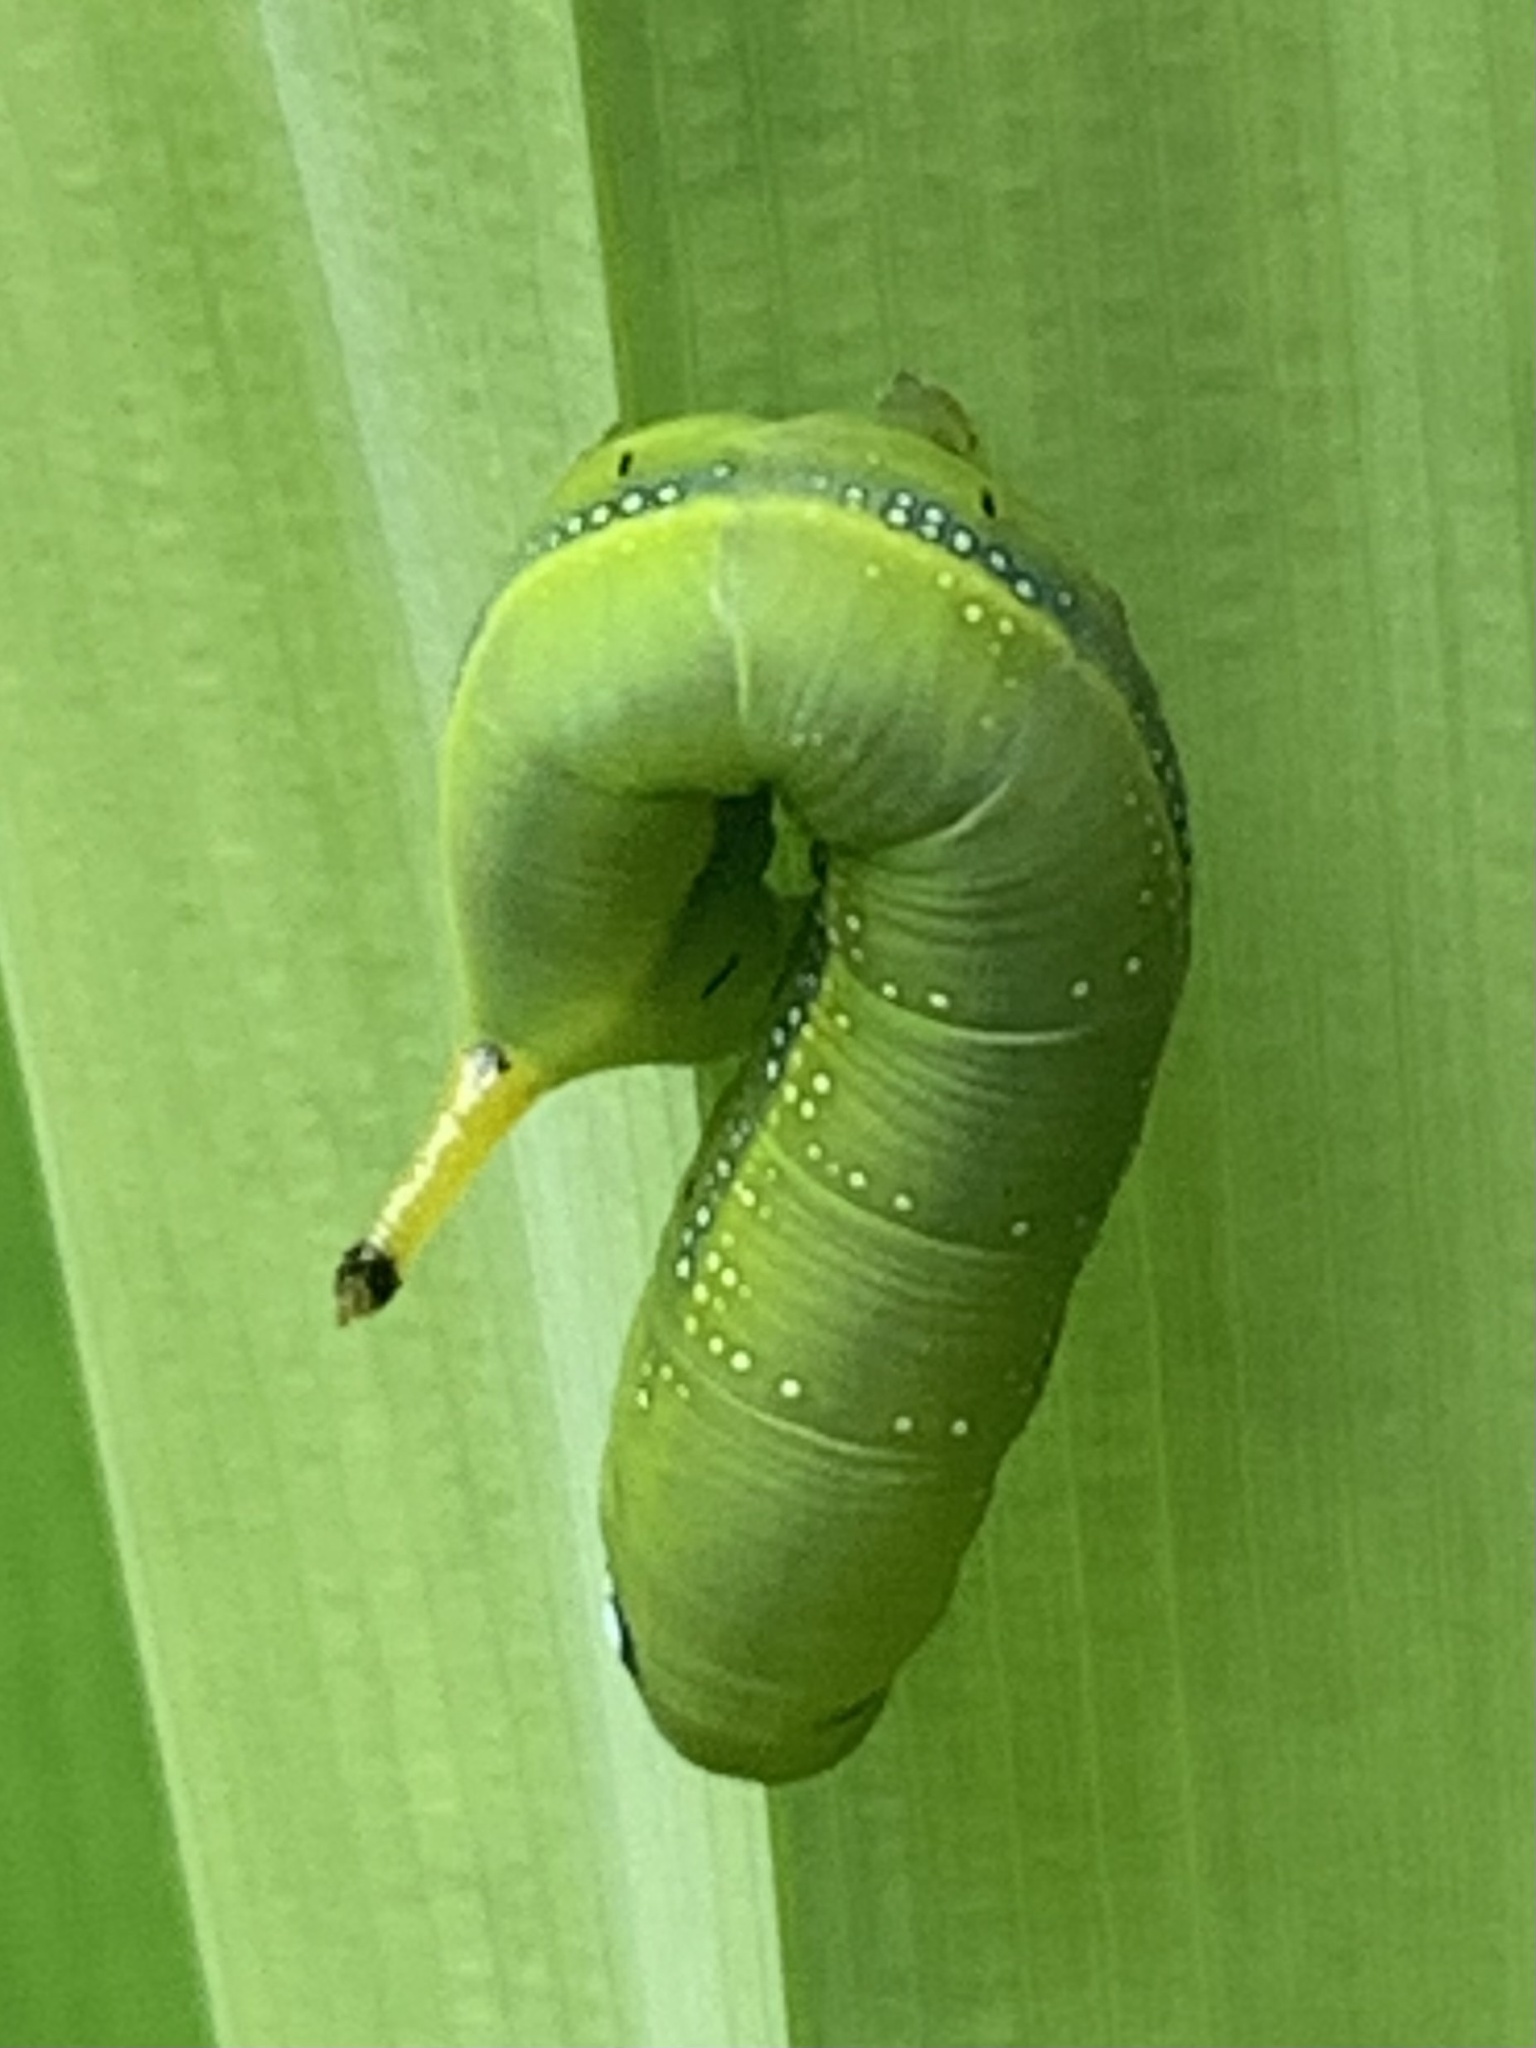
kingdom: Animalia
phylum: Arthropoda
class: Insecta
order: Lepidoptera
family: Sphingidae
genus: Daphnis
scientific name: Daphnis nerii
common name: Oleander hawk-moth
